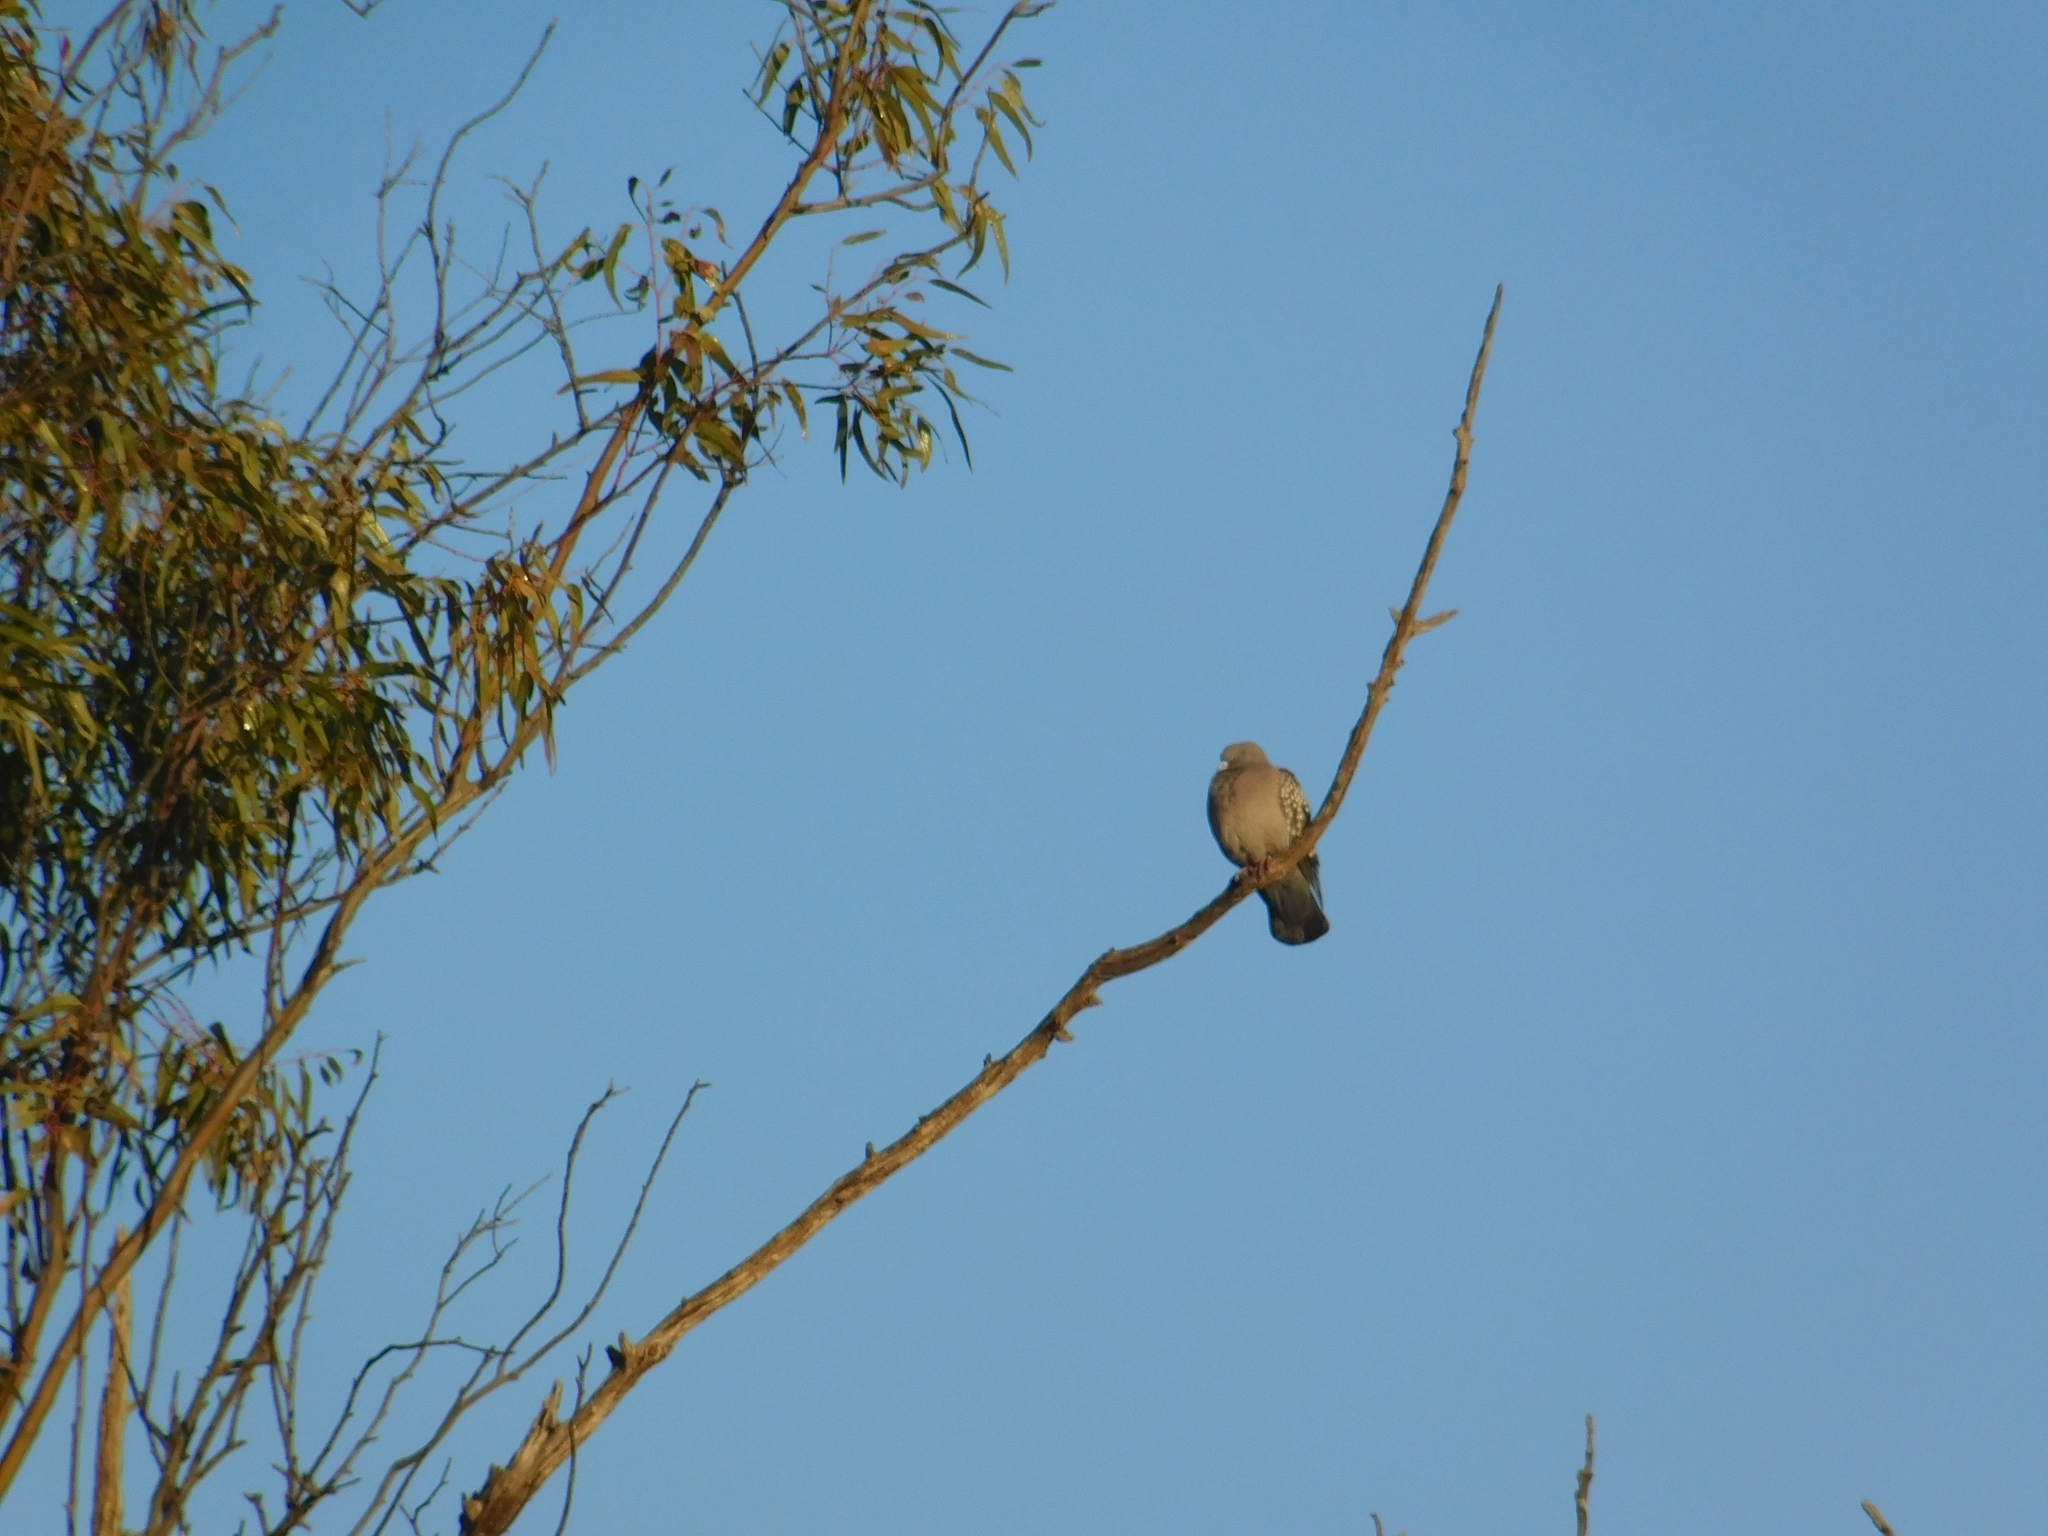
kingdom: Animalia
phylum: Chordata
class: Aves
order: Columbiformes
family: Columbidae
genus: Patagioenas
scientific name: Patagioenas maculosa
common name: Spot-winged pigeon
